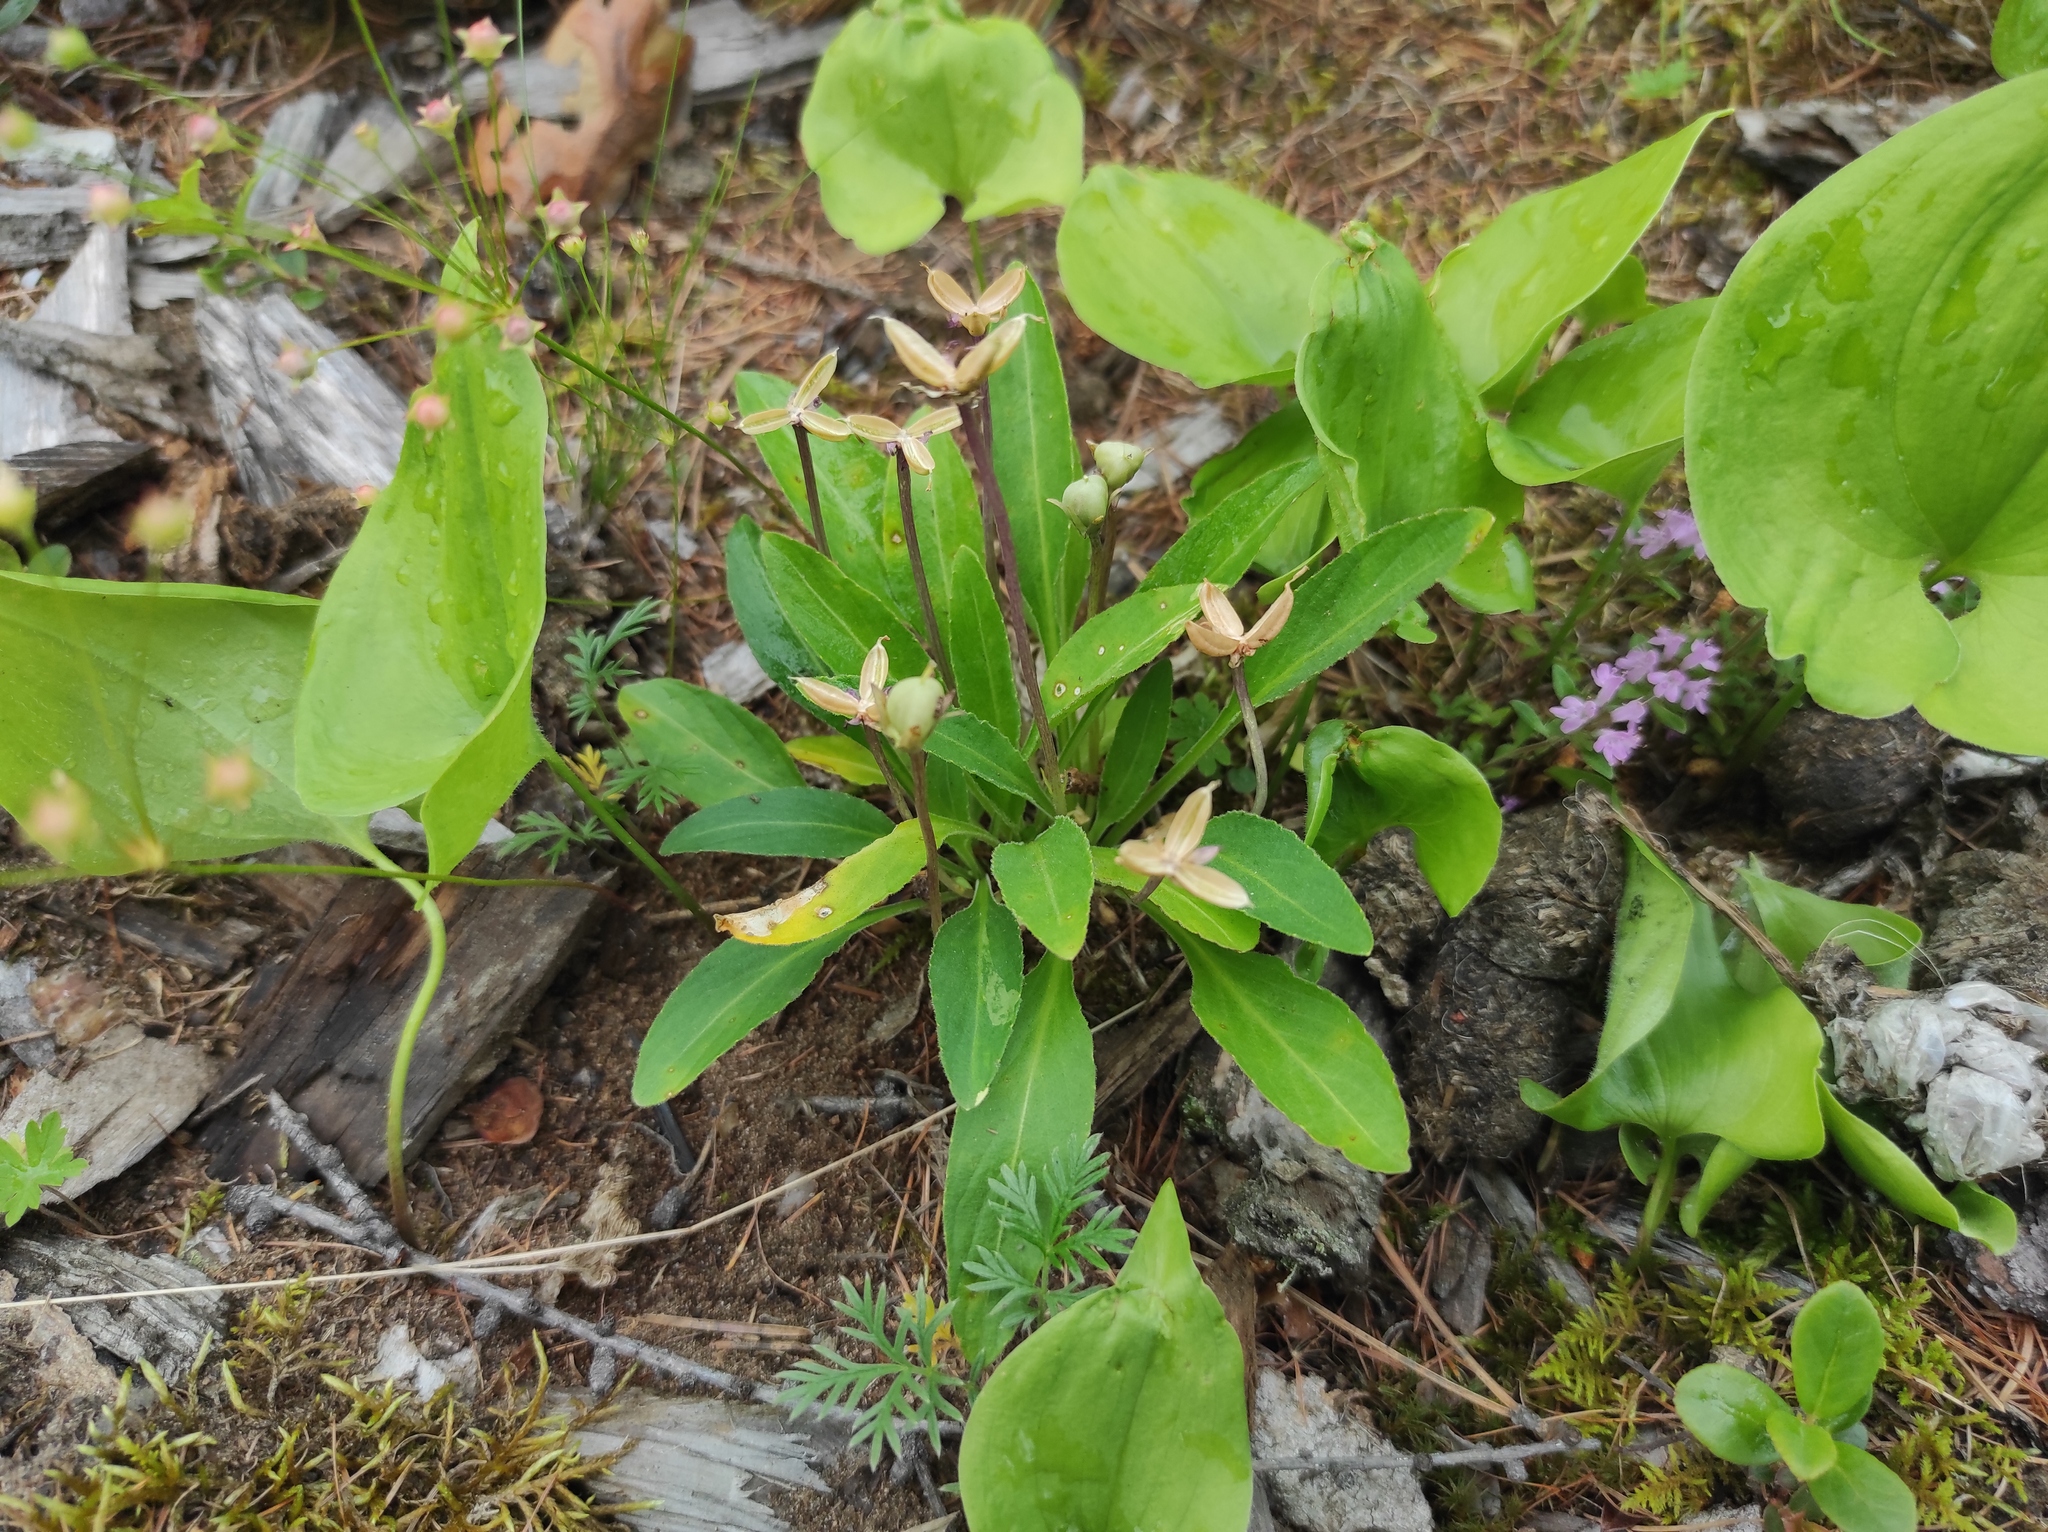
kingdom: Plantae
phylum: Tracheophyta
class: Magnoliopsida
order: Malpighiales
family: Violaceae
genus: Viola
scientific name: Viola gmeliniana
